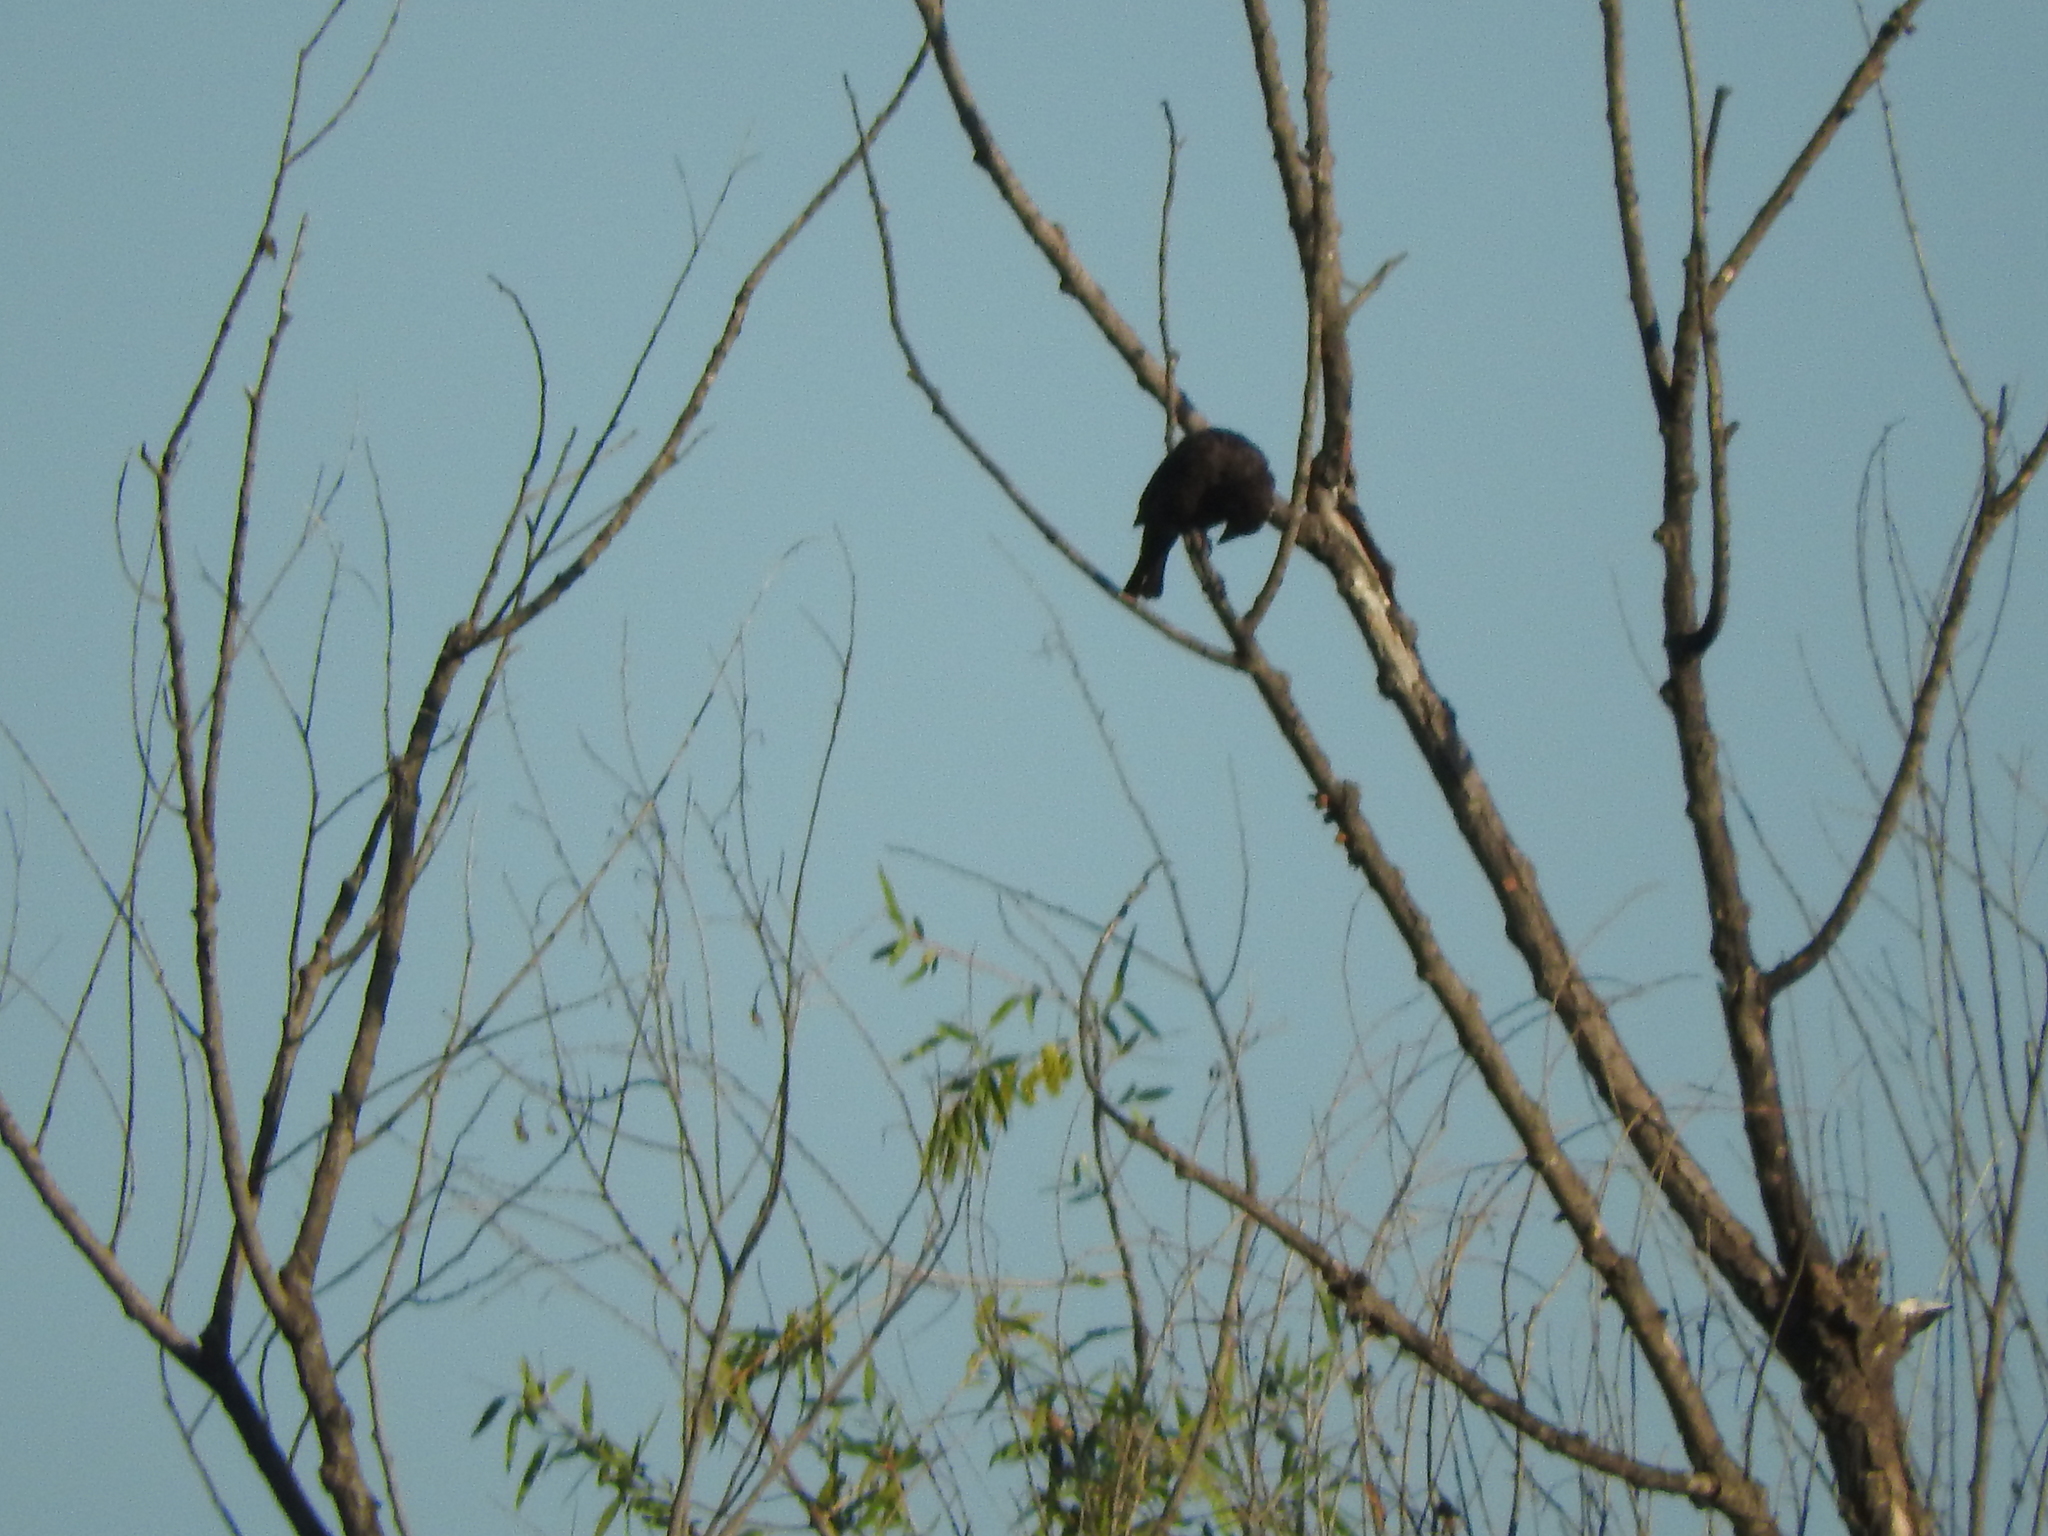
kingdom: Animalia
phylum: Chordata
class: Aves
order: Passeriformes
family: Icteridae
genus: Molothrus
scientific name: Molothrus
